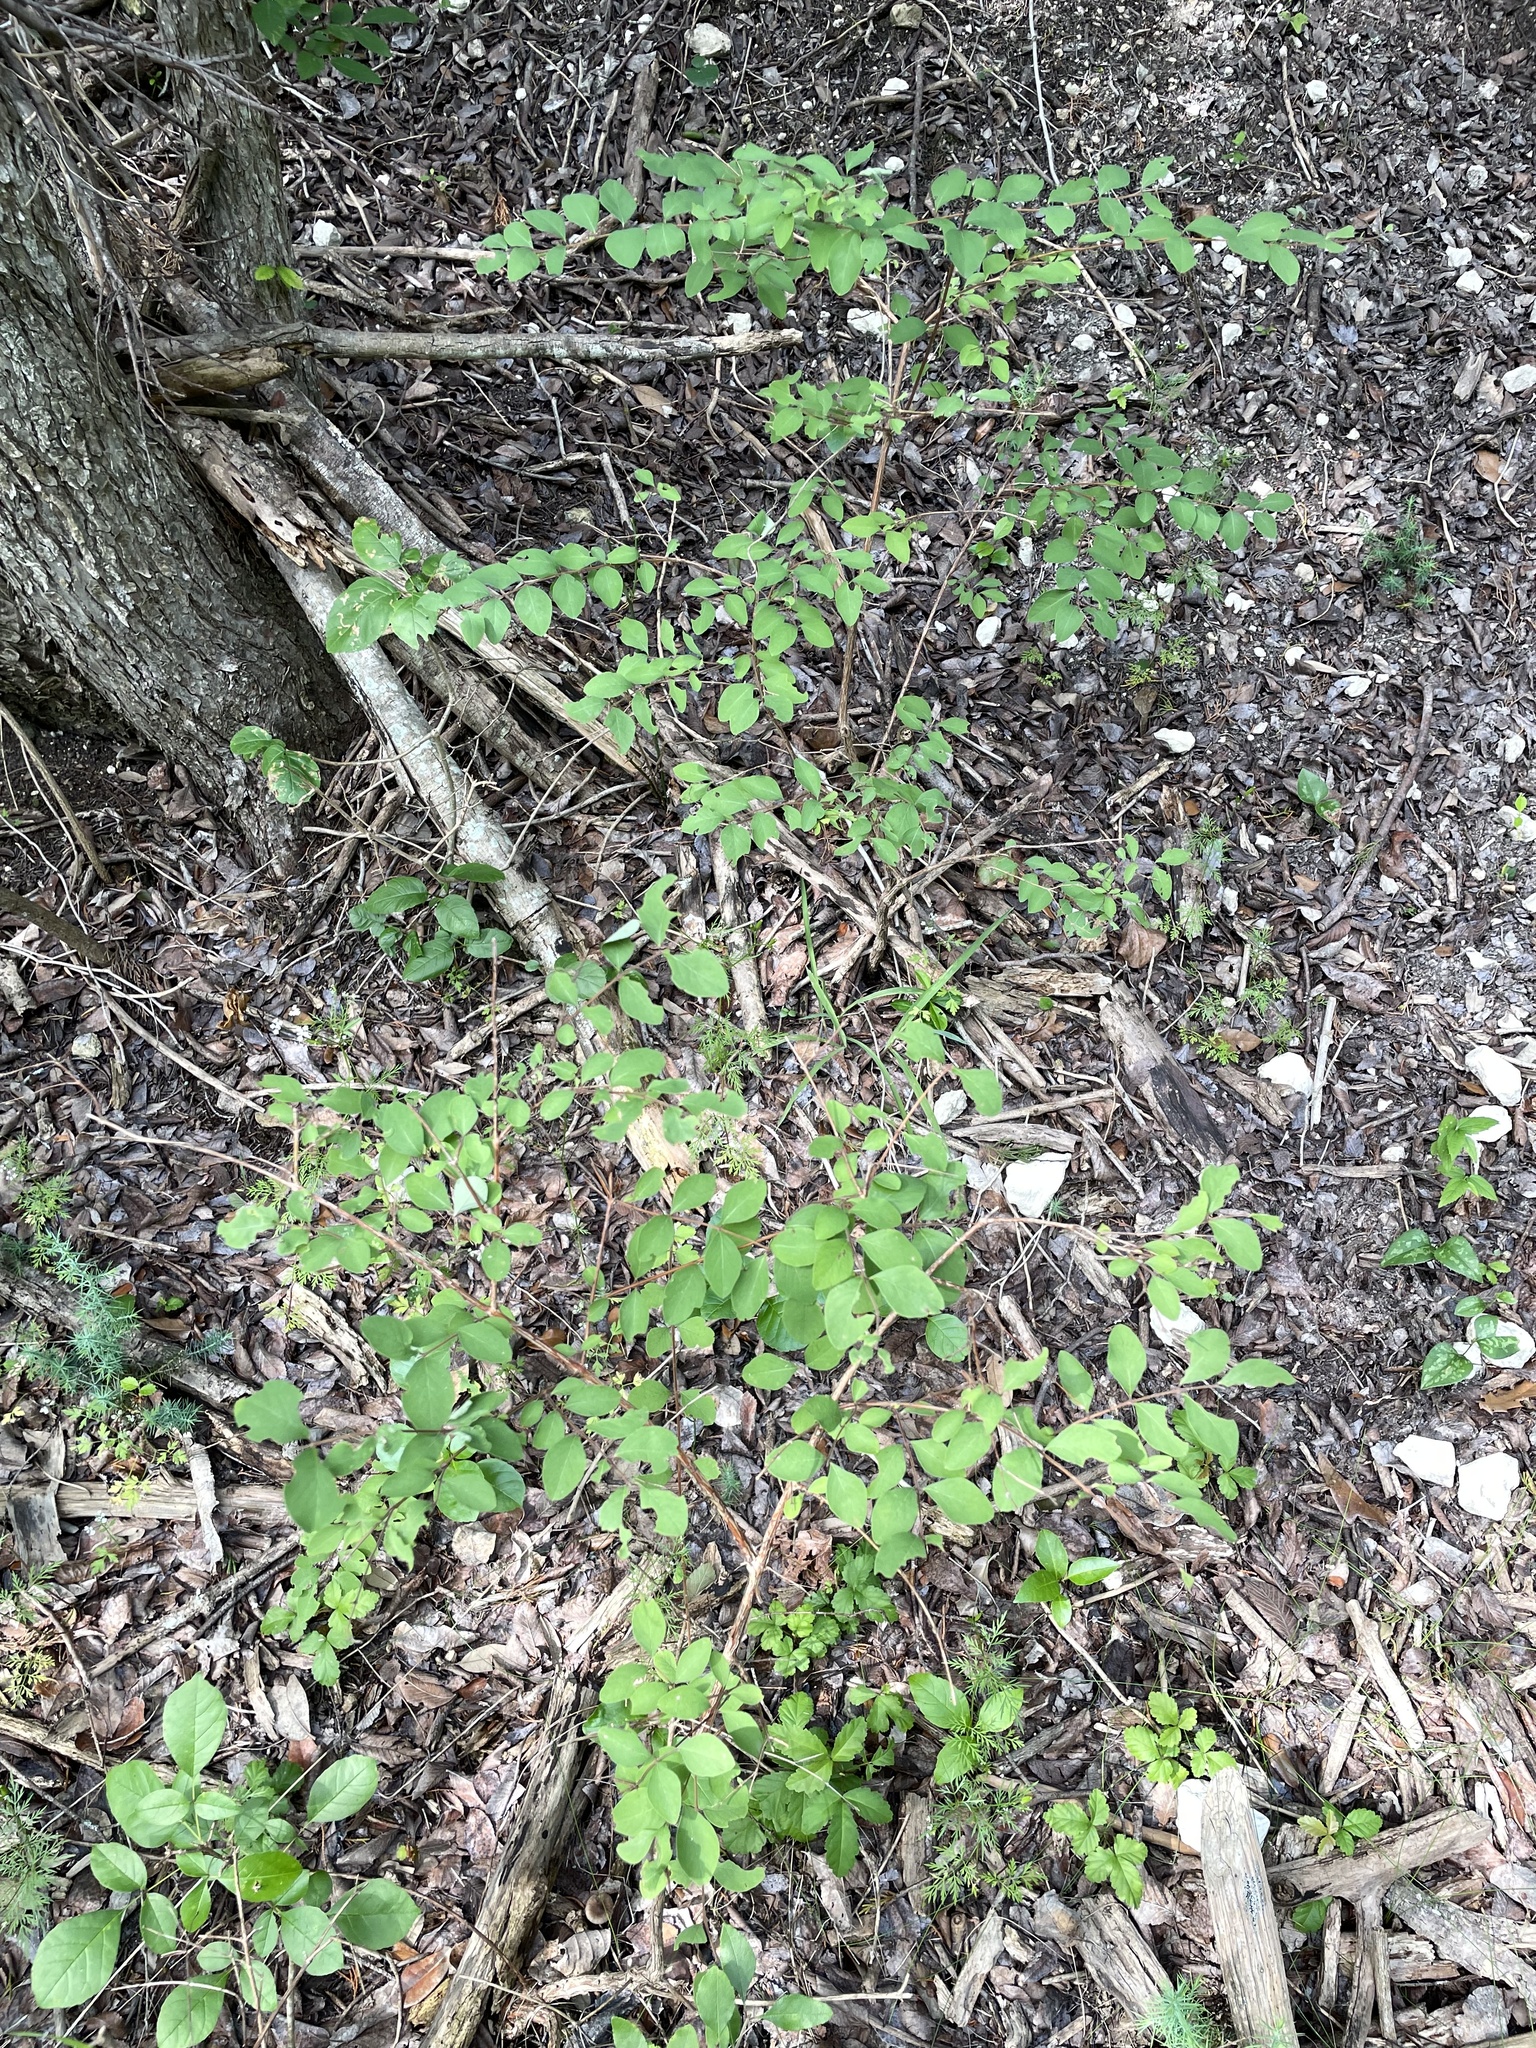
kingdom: Plantae
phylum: Tracheophyta
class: Magnoliopsida
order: Dipsacales
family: Caprifoliaceae
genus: Symphoricarpos
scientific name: Symphoricarpos orbiculatus
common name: Coralberry
